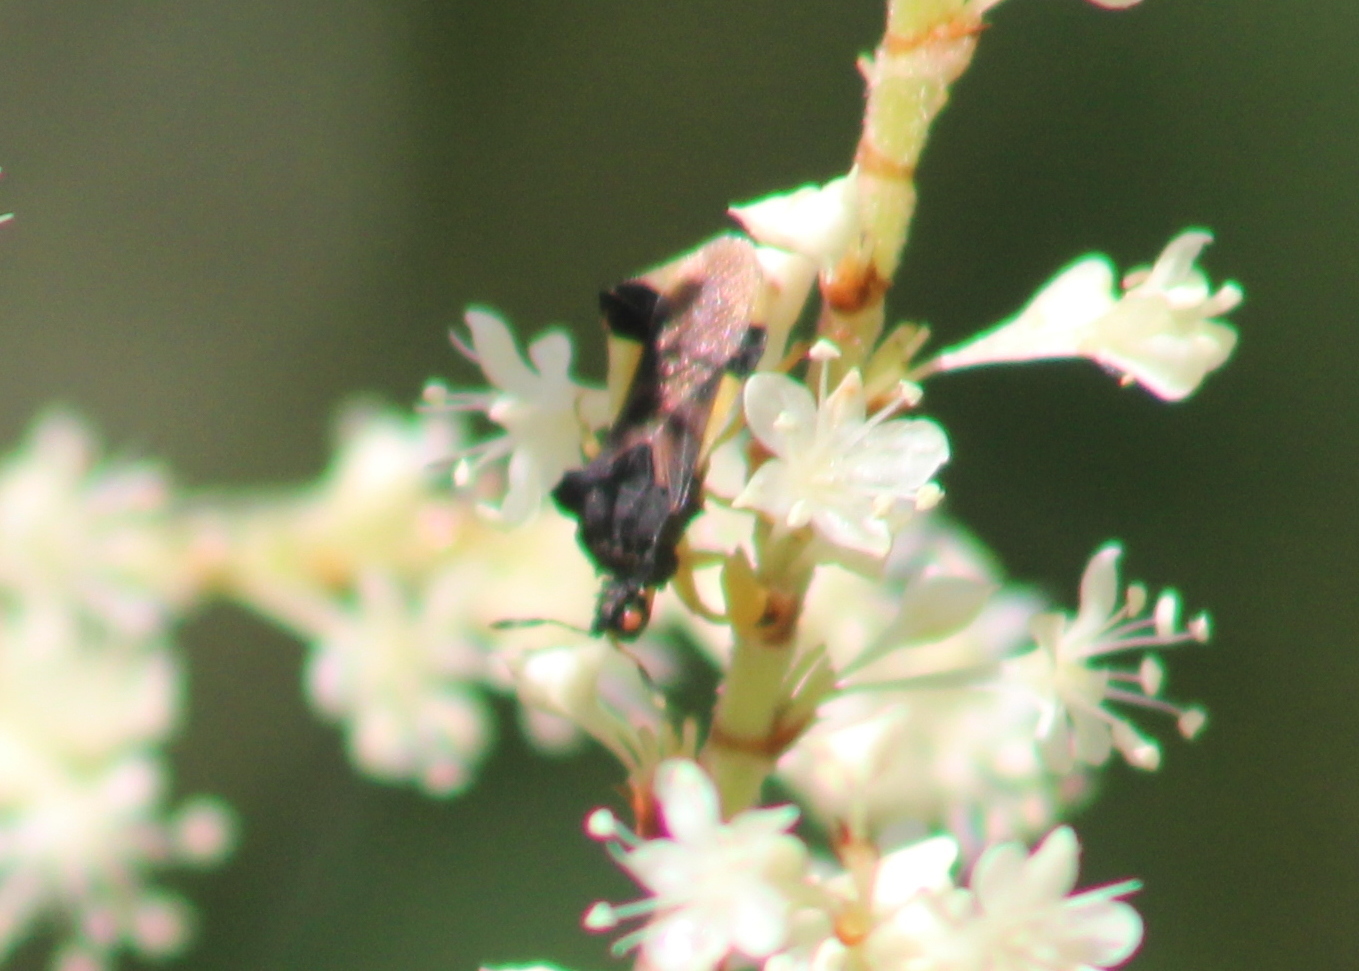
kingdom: Animalia
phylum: Arthropoda
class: Insecta
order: Hemiptera
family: Reduviidae
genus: Phymata
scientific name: Phymata pennsylvanica
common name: Pennsylvania ambush bug
